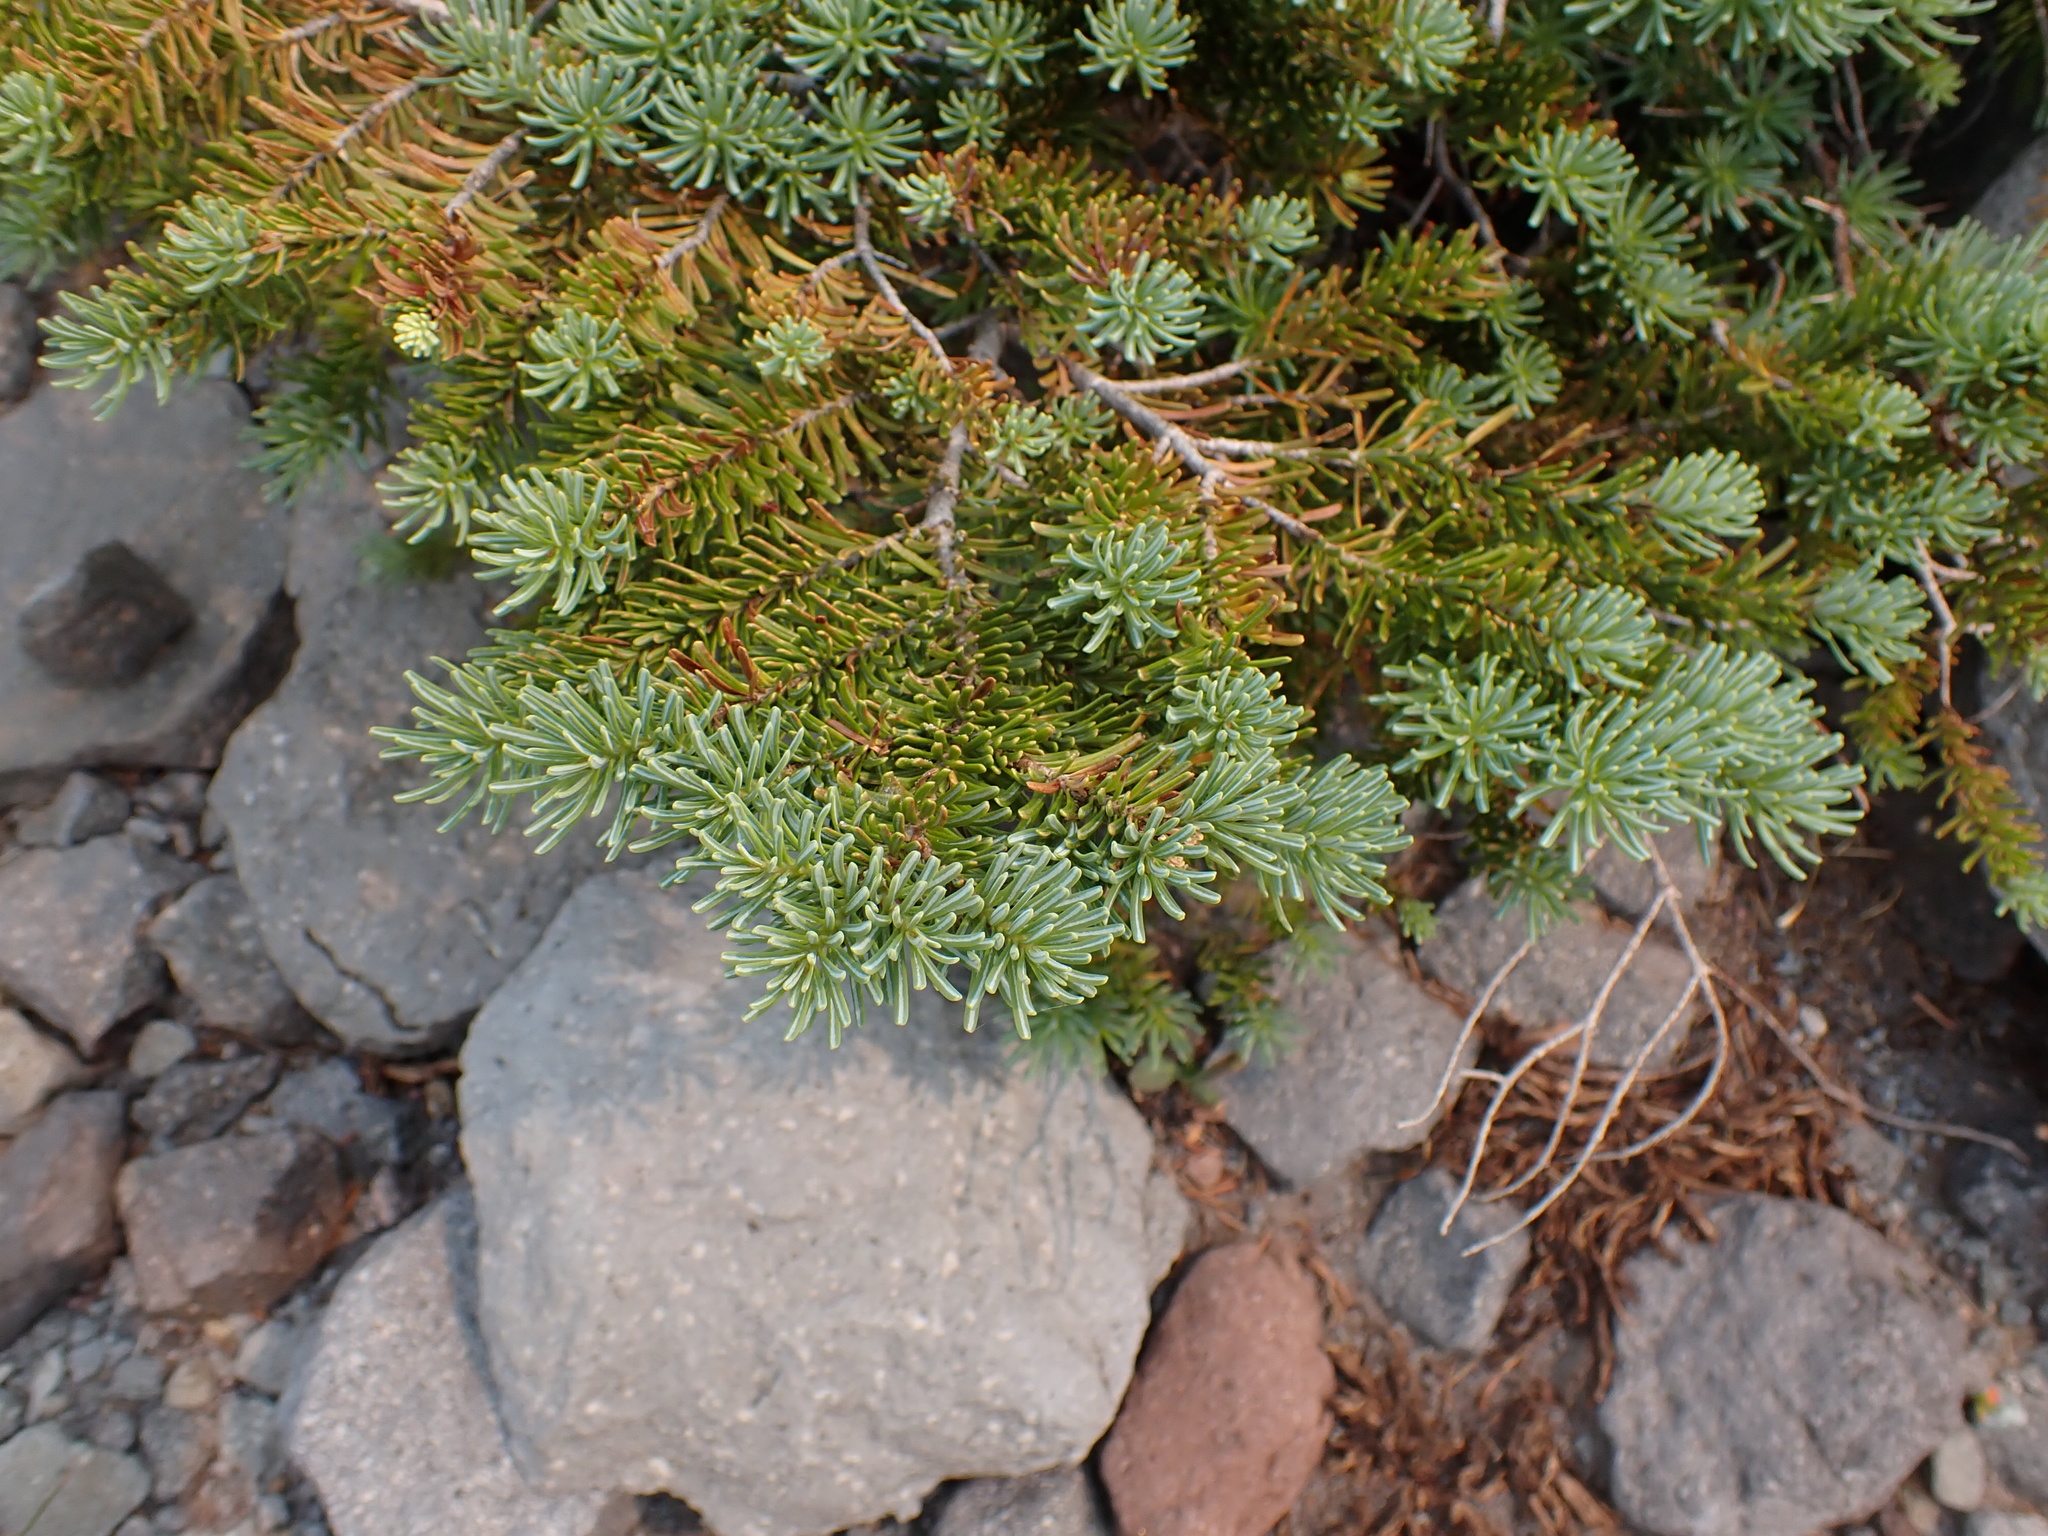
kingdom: Plantae
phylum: Tracheophyta
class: Pinopsida
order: Pinales
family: Pinaceae
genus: Abies
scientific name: Abies lasiocarpa
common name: Subalpine fir
